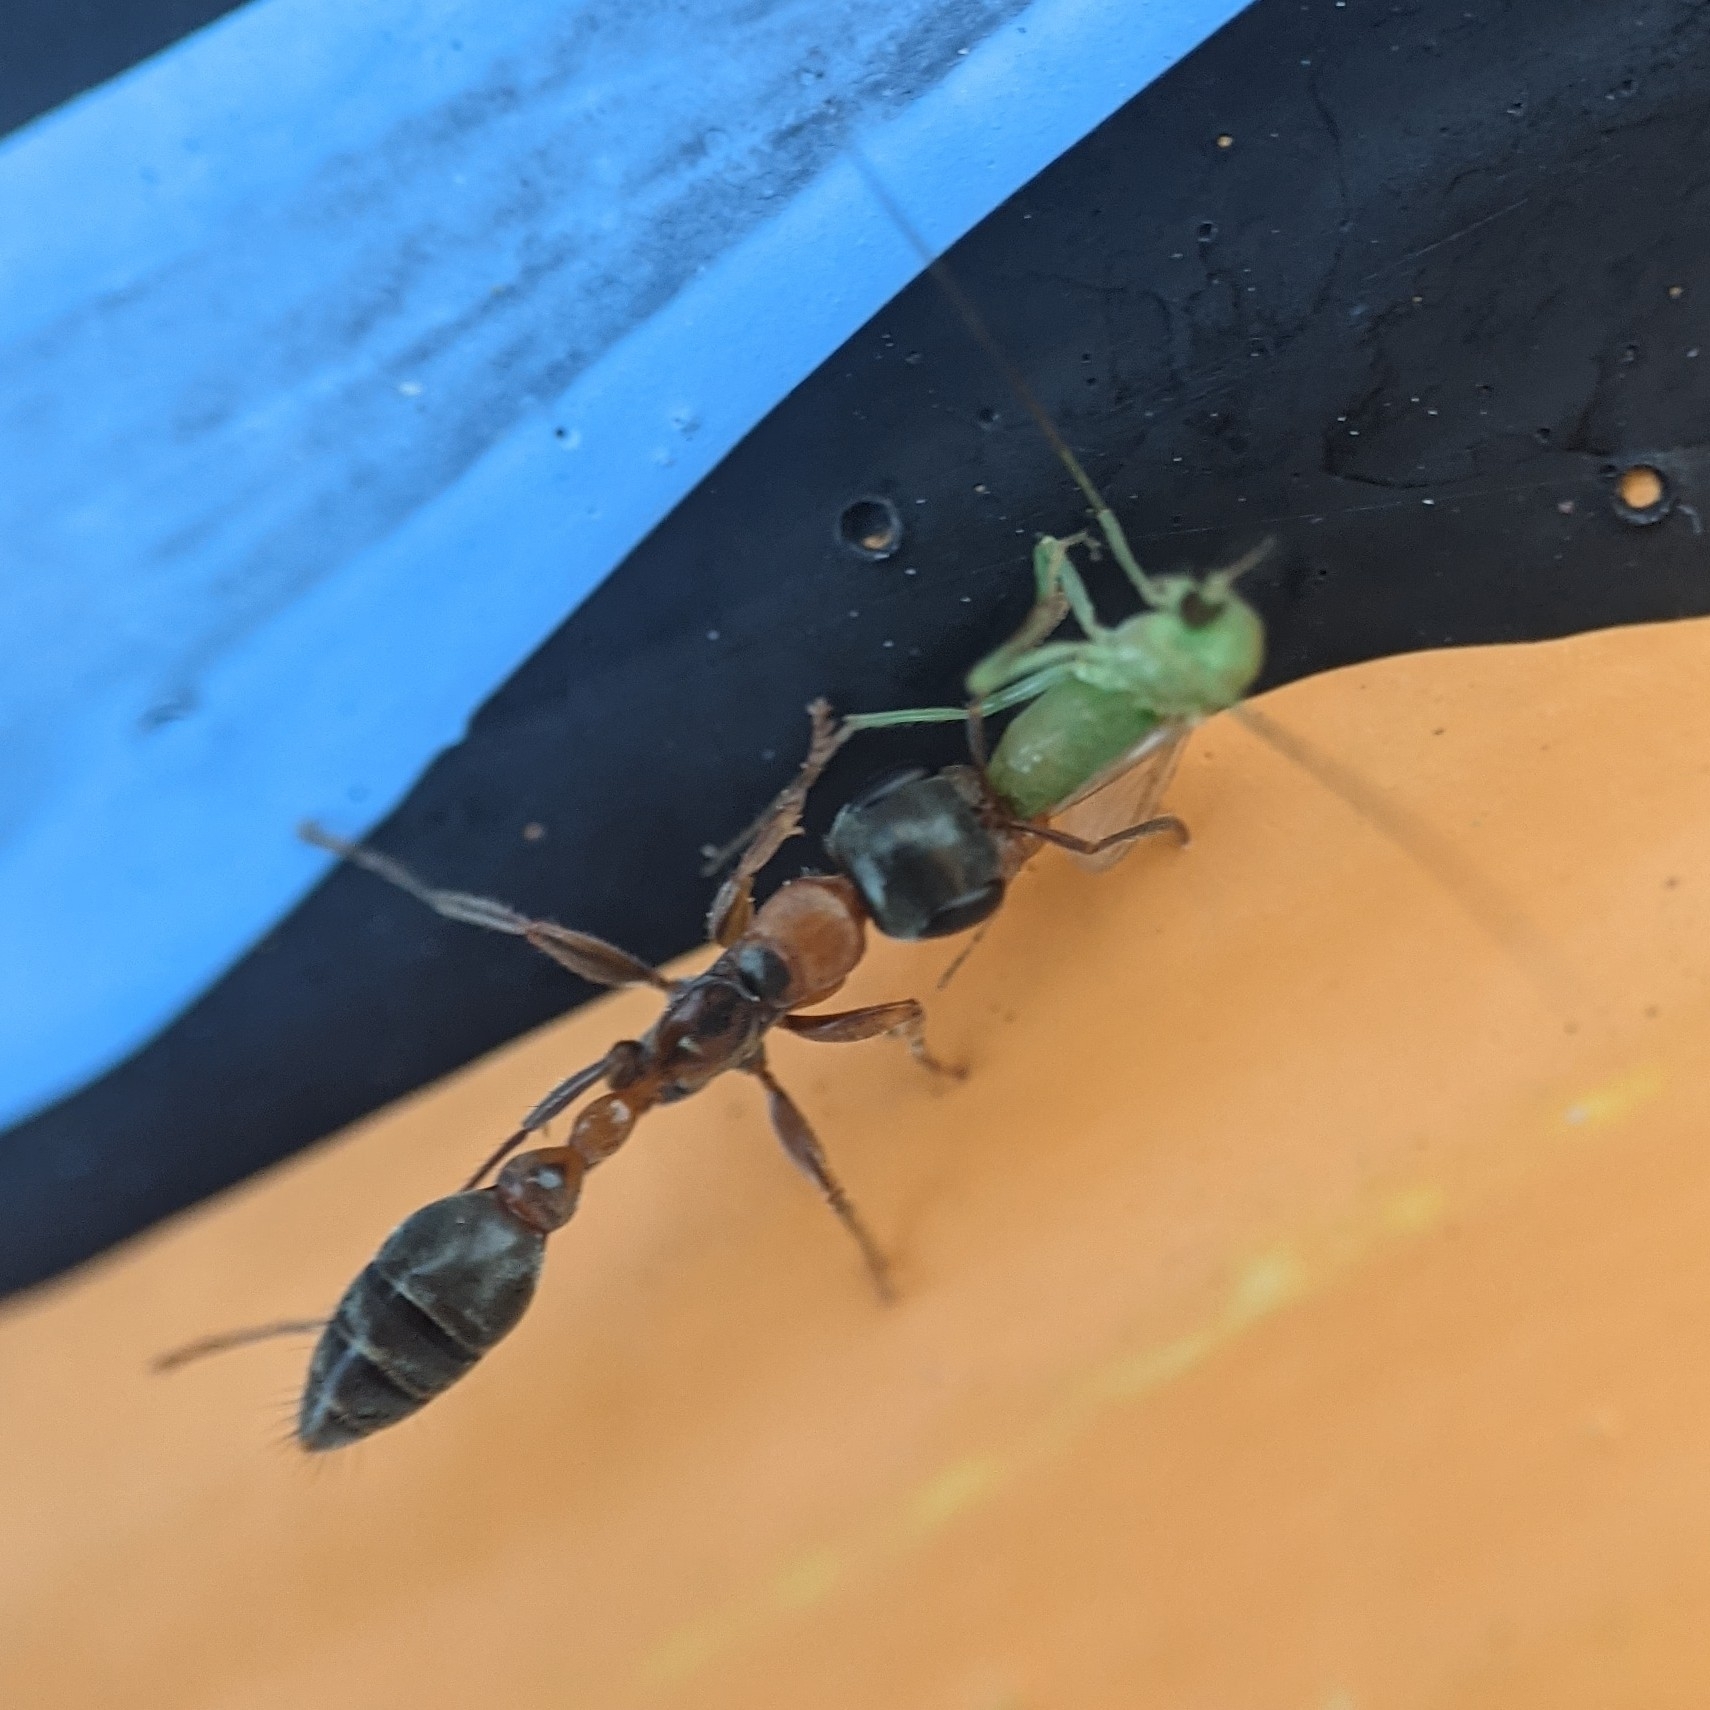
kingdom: Animalia
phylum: Arthropoda
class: Insecta
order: Hymenoptera
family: Formicidae
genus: Pseudomyrmex
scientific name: Pseudomyrmex gracilis
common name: Graceful twig ant
